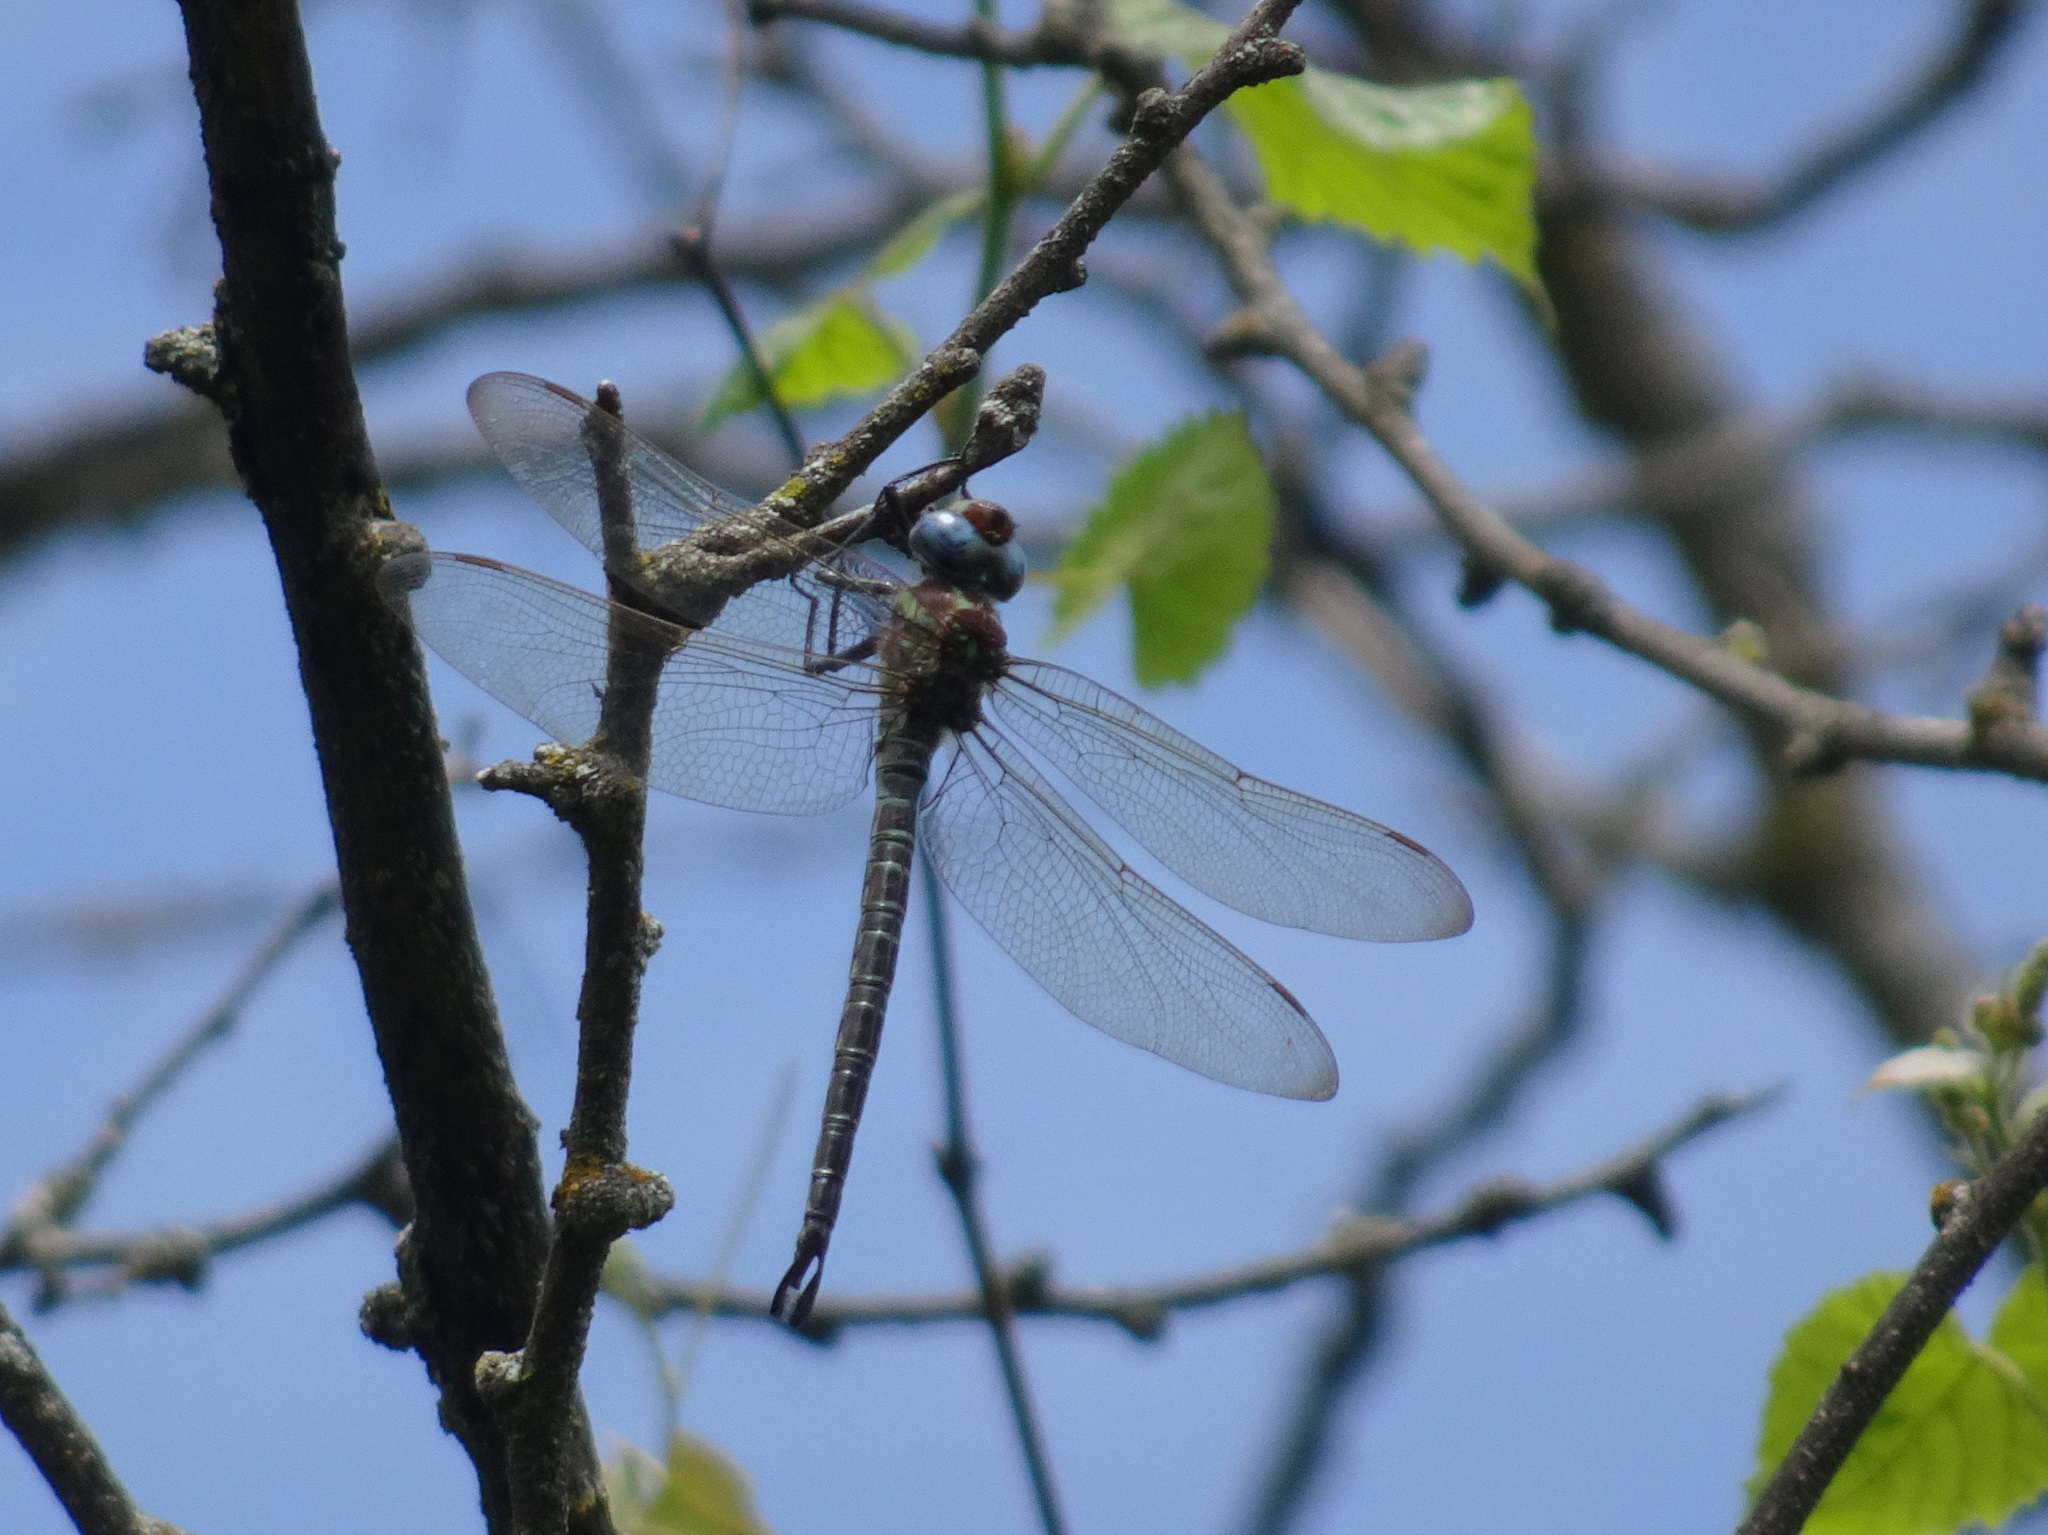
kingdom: Animalia
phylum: Arthropoda
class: Insecta
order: Odonata
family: Aeshnidae
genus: Epiaeschna
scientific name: Epiaeschna heros
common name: Swamp darner
